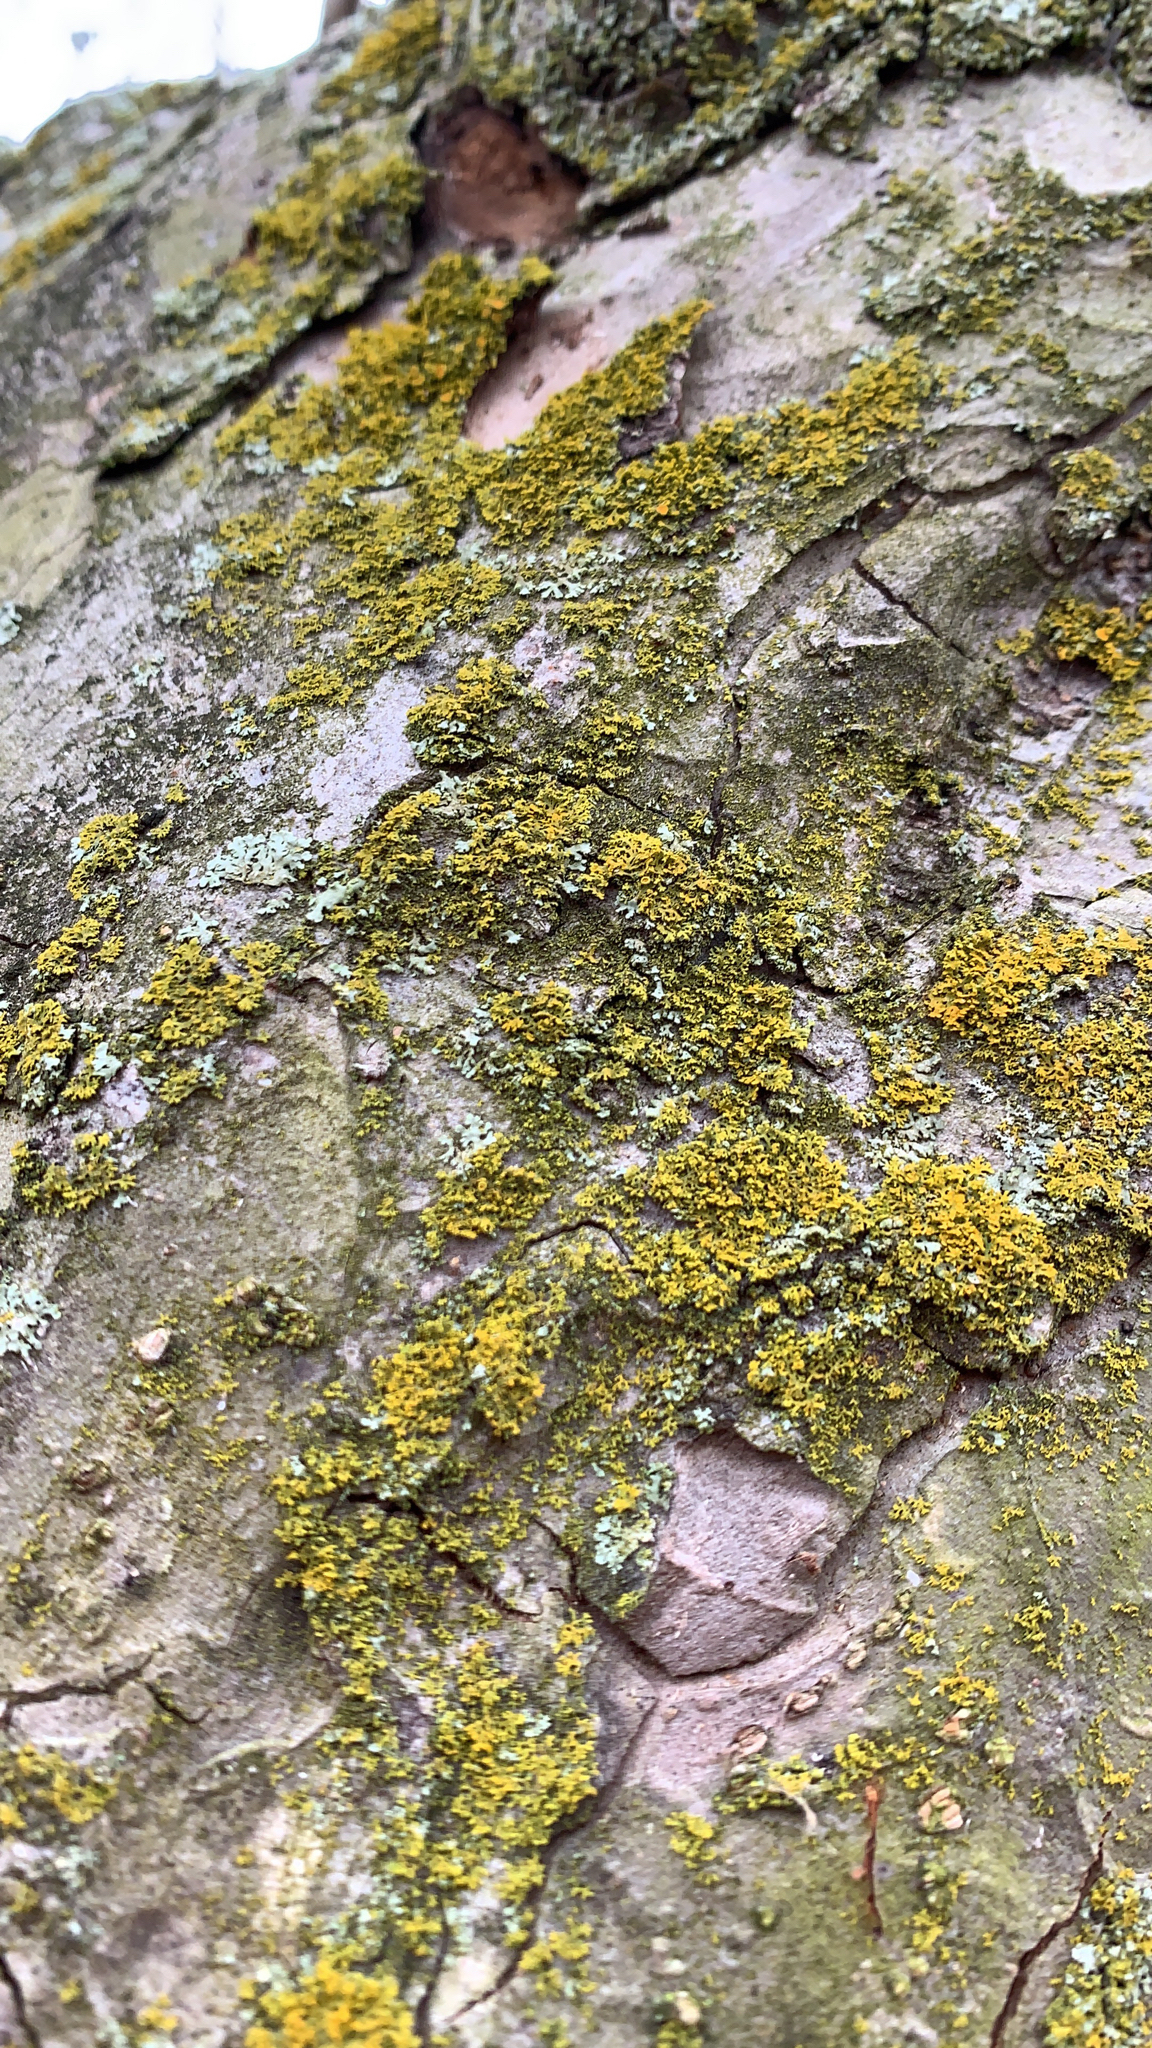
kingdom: Fungi
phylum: Ascomycota
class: Candelariomycetes
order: Candelariales
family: Candelariaceae
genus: Candelaria
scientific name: Candelaria concolor
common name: Candleflame lichen
